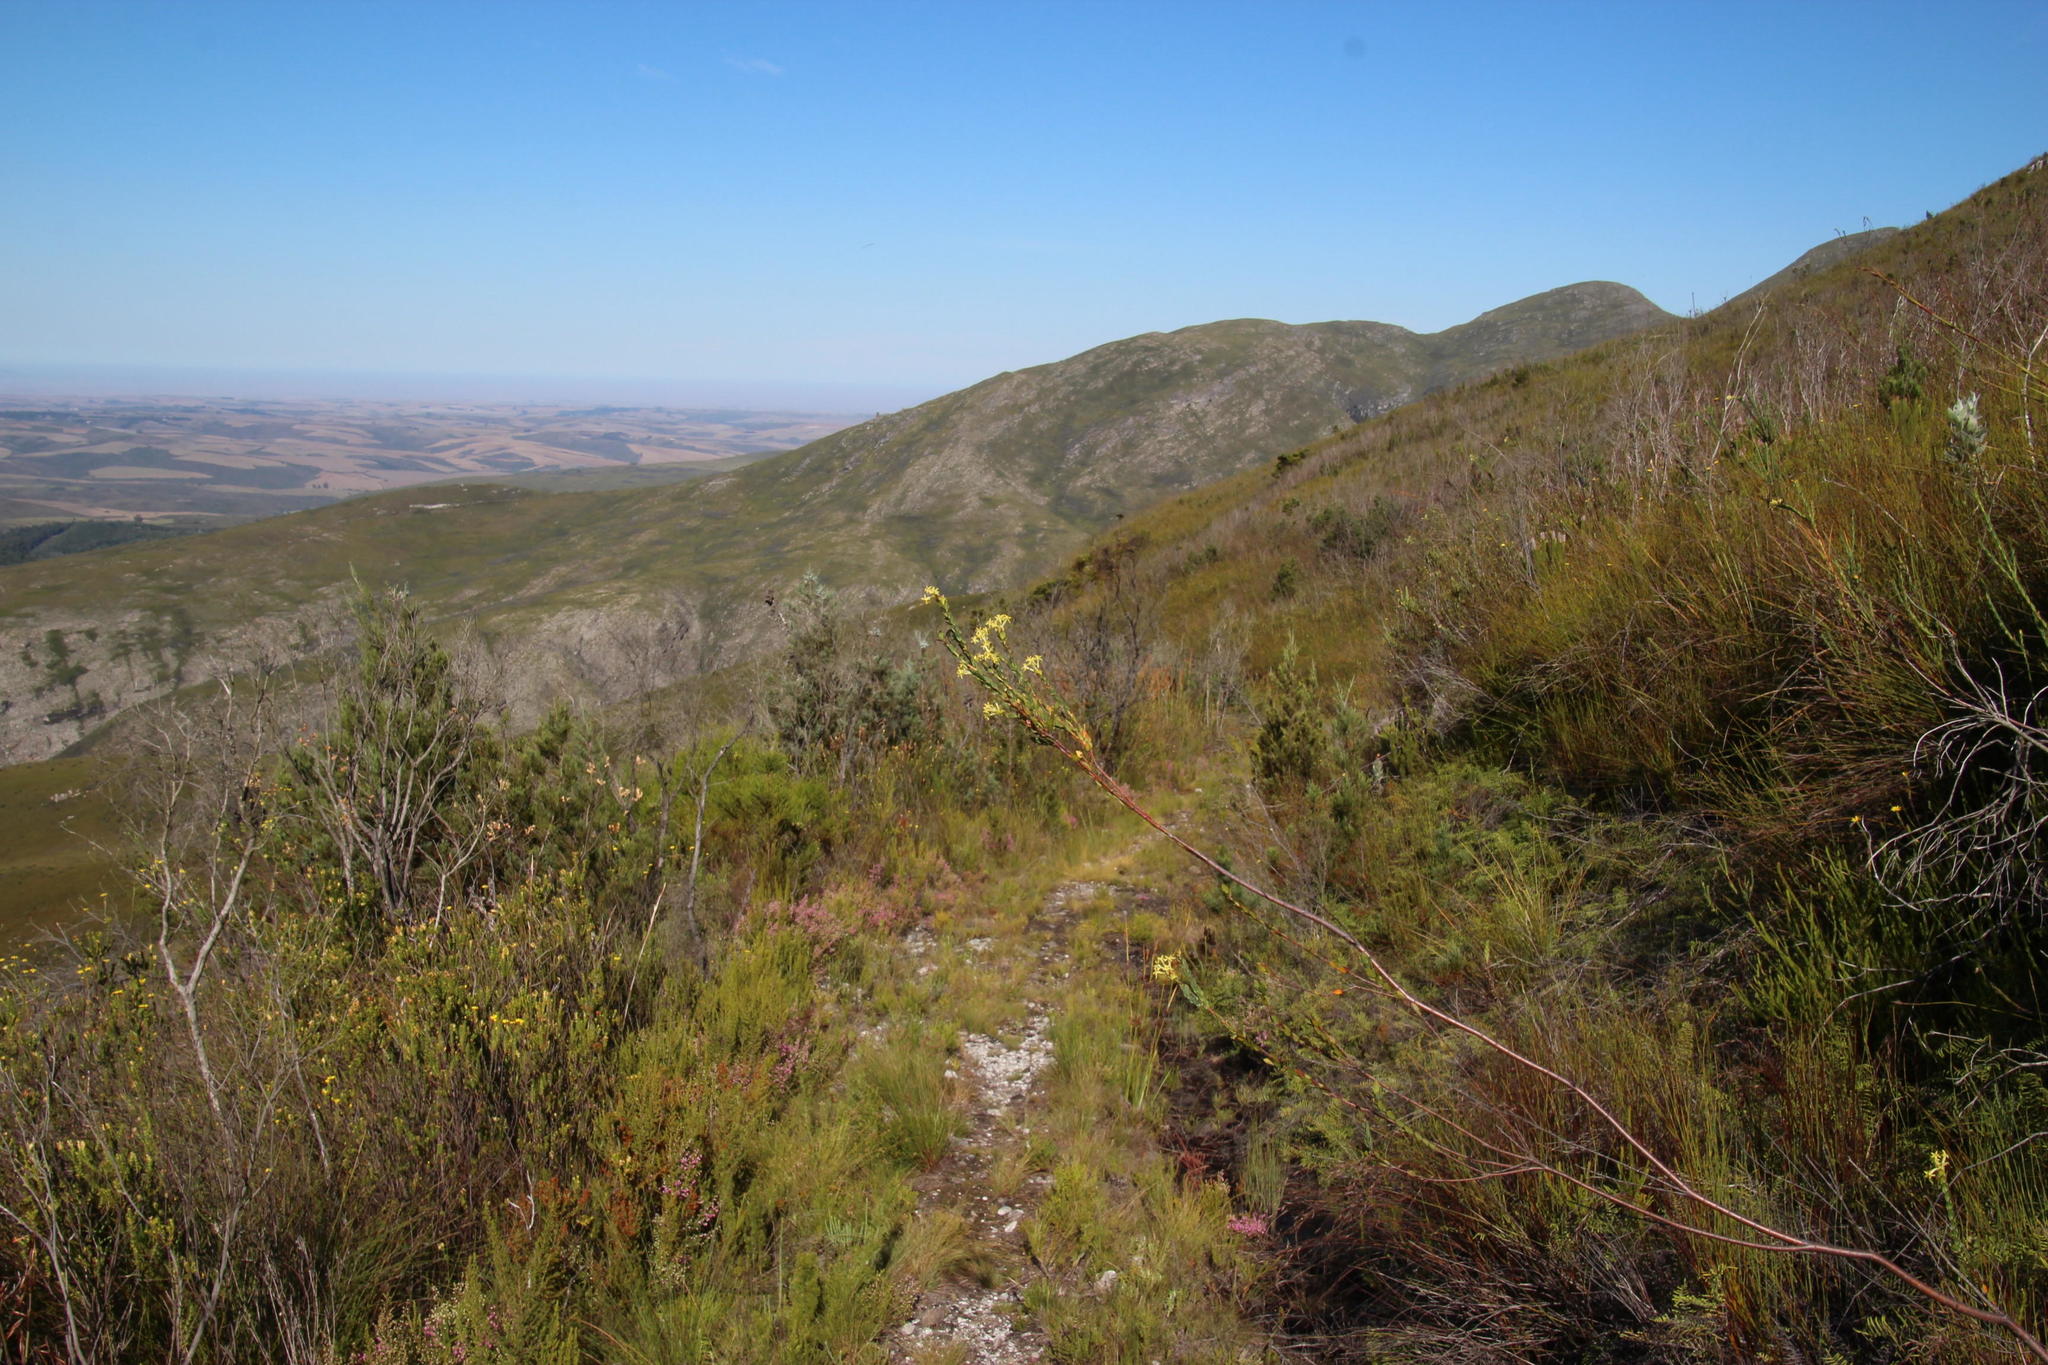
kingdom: Plantae
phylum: Tracheophyta
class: Magnoliopsida
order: Malvales
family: Thymelaeaceae
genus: Gnidia
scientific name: Gnidia oppositifolia
